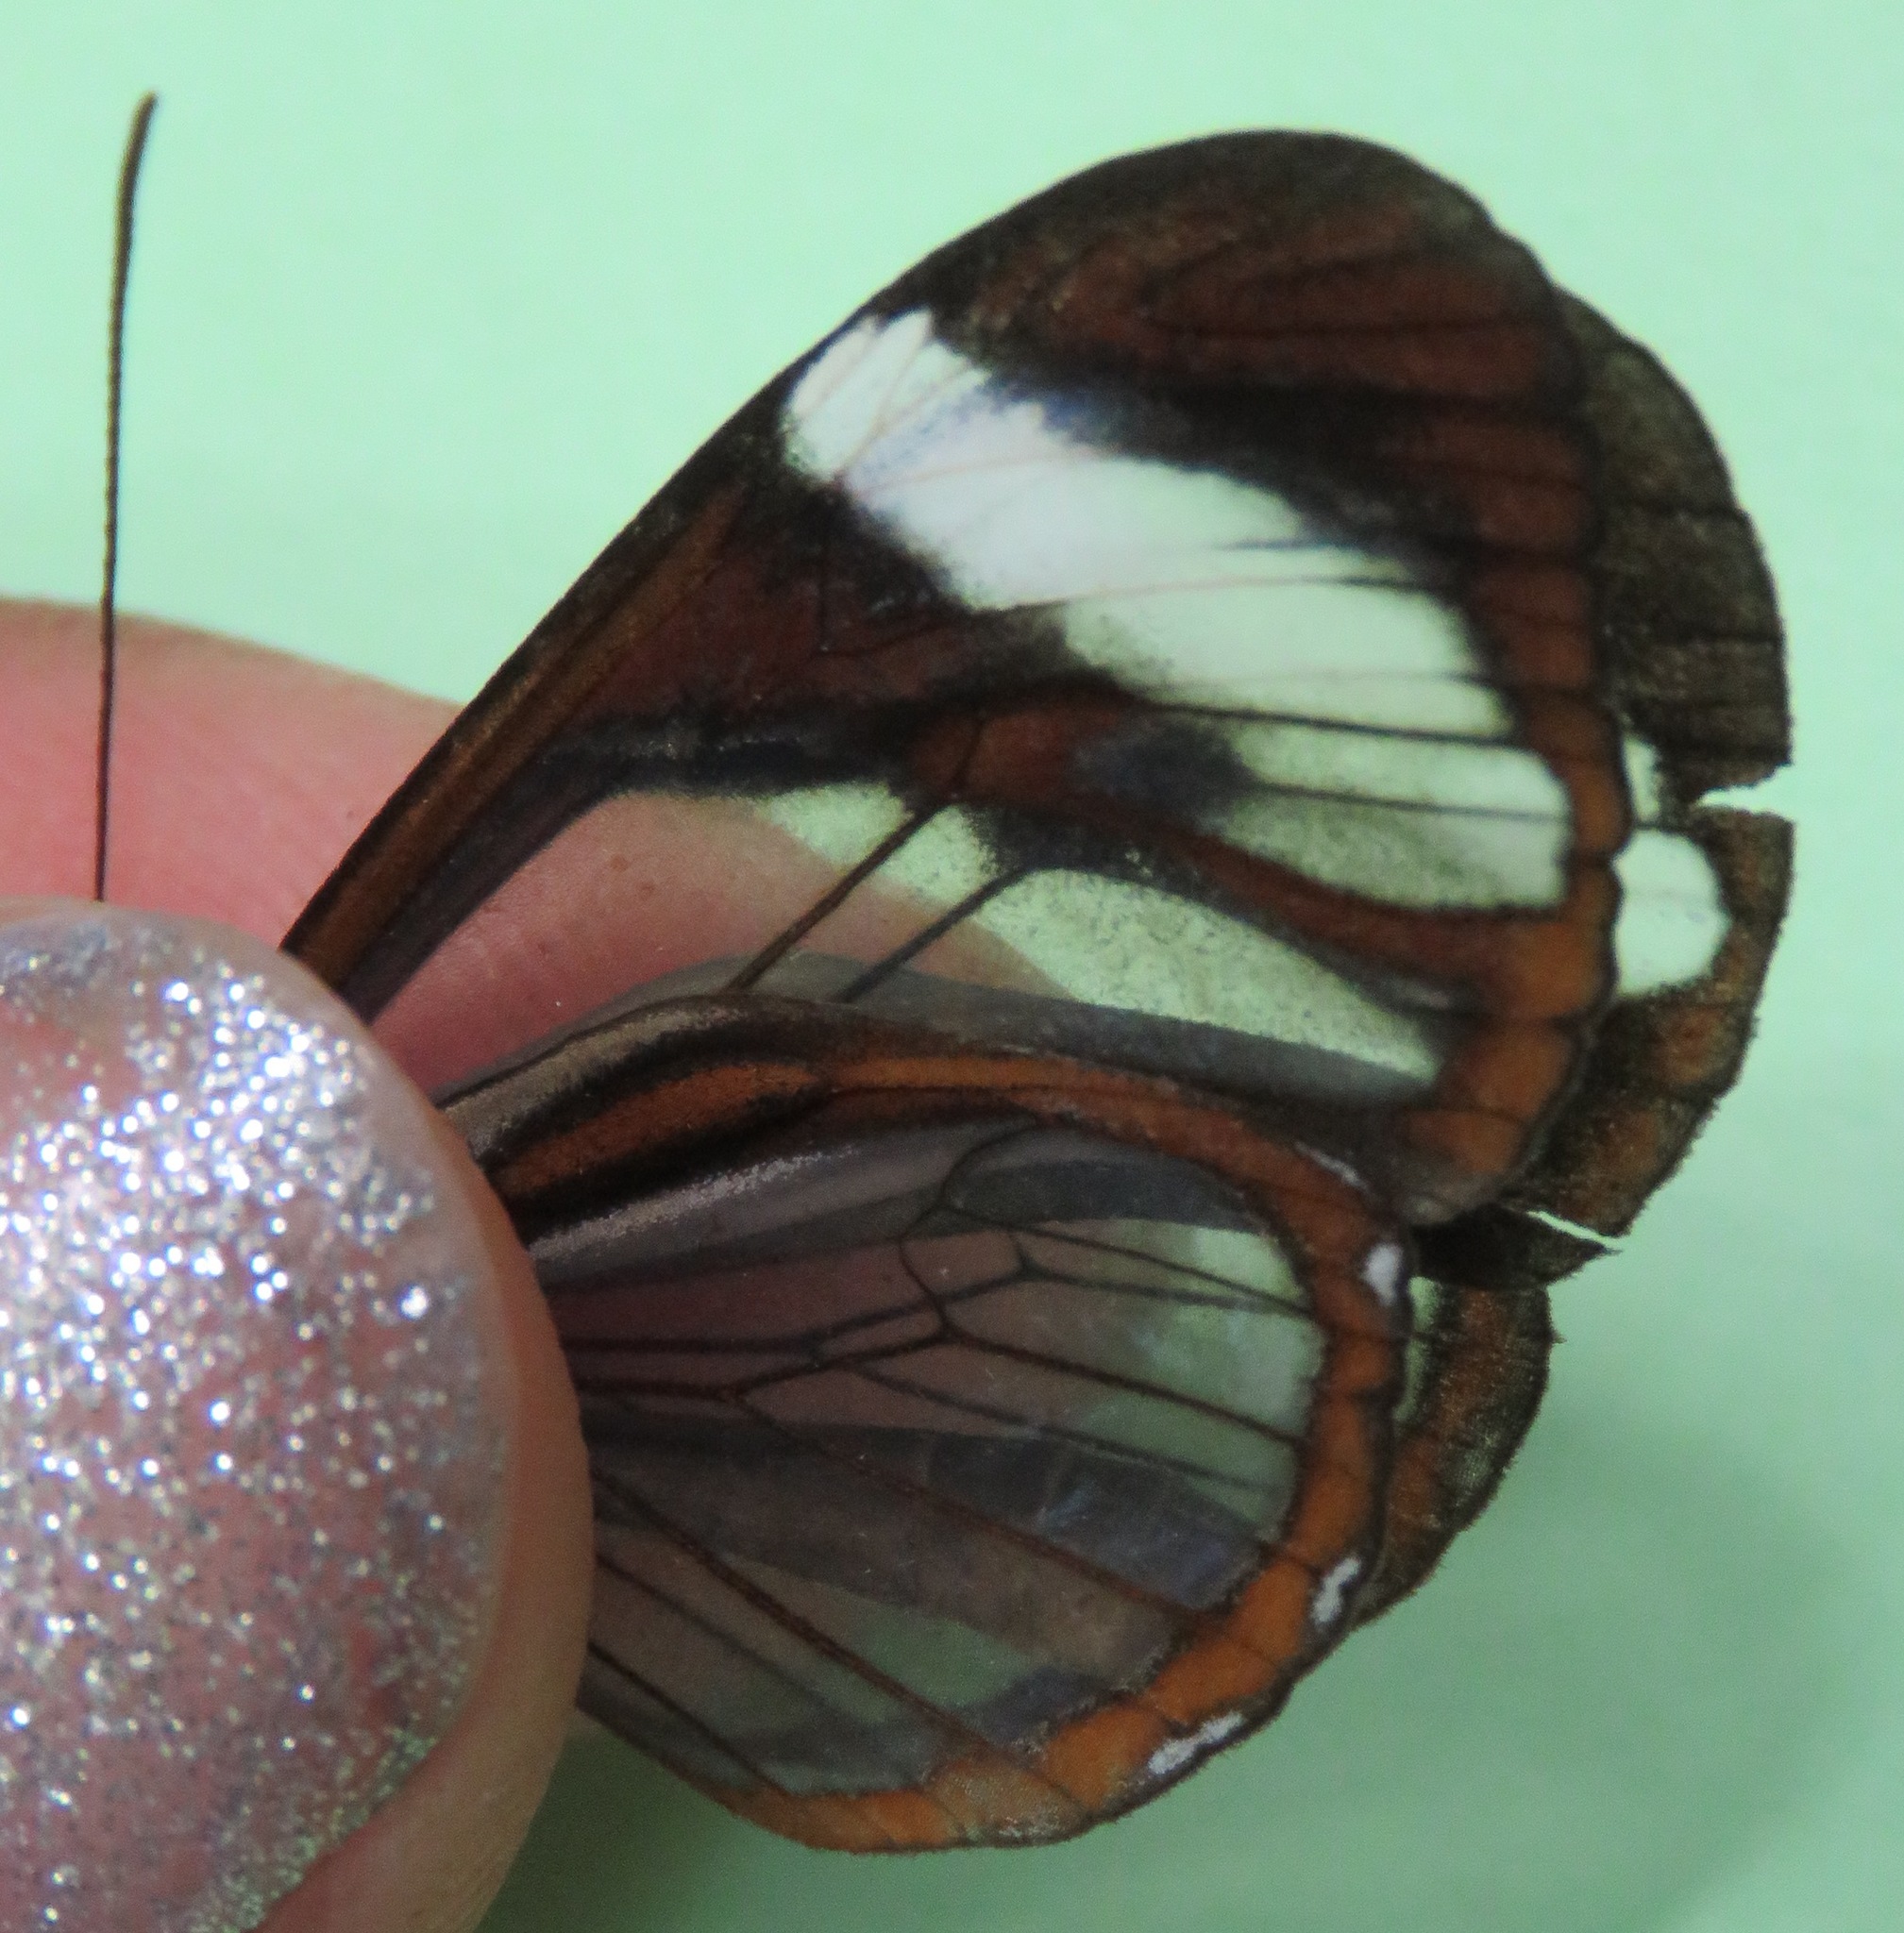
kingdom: Animalia
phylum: Arthropoda
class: Insecta
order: Lepidoptera
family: Nymphalidae
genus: Ithomia
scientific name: Ithomia patilla
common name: Patilla clearwing
